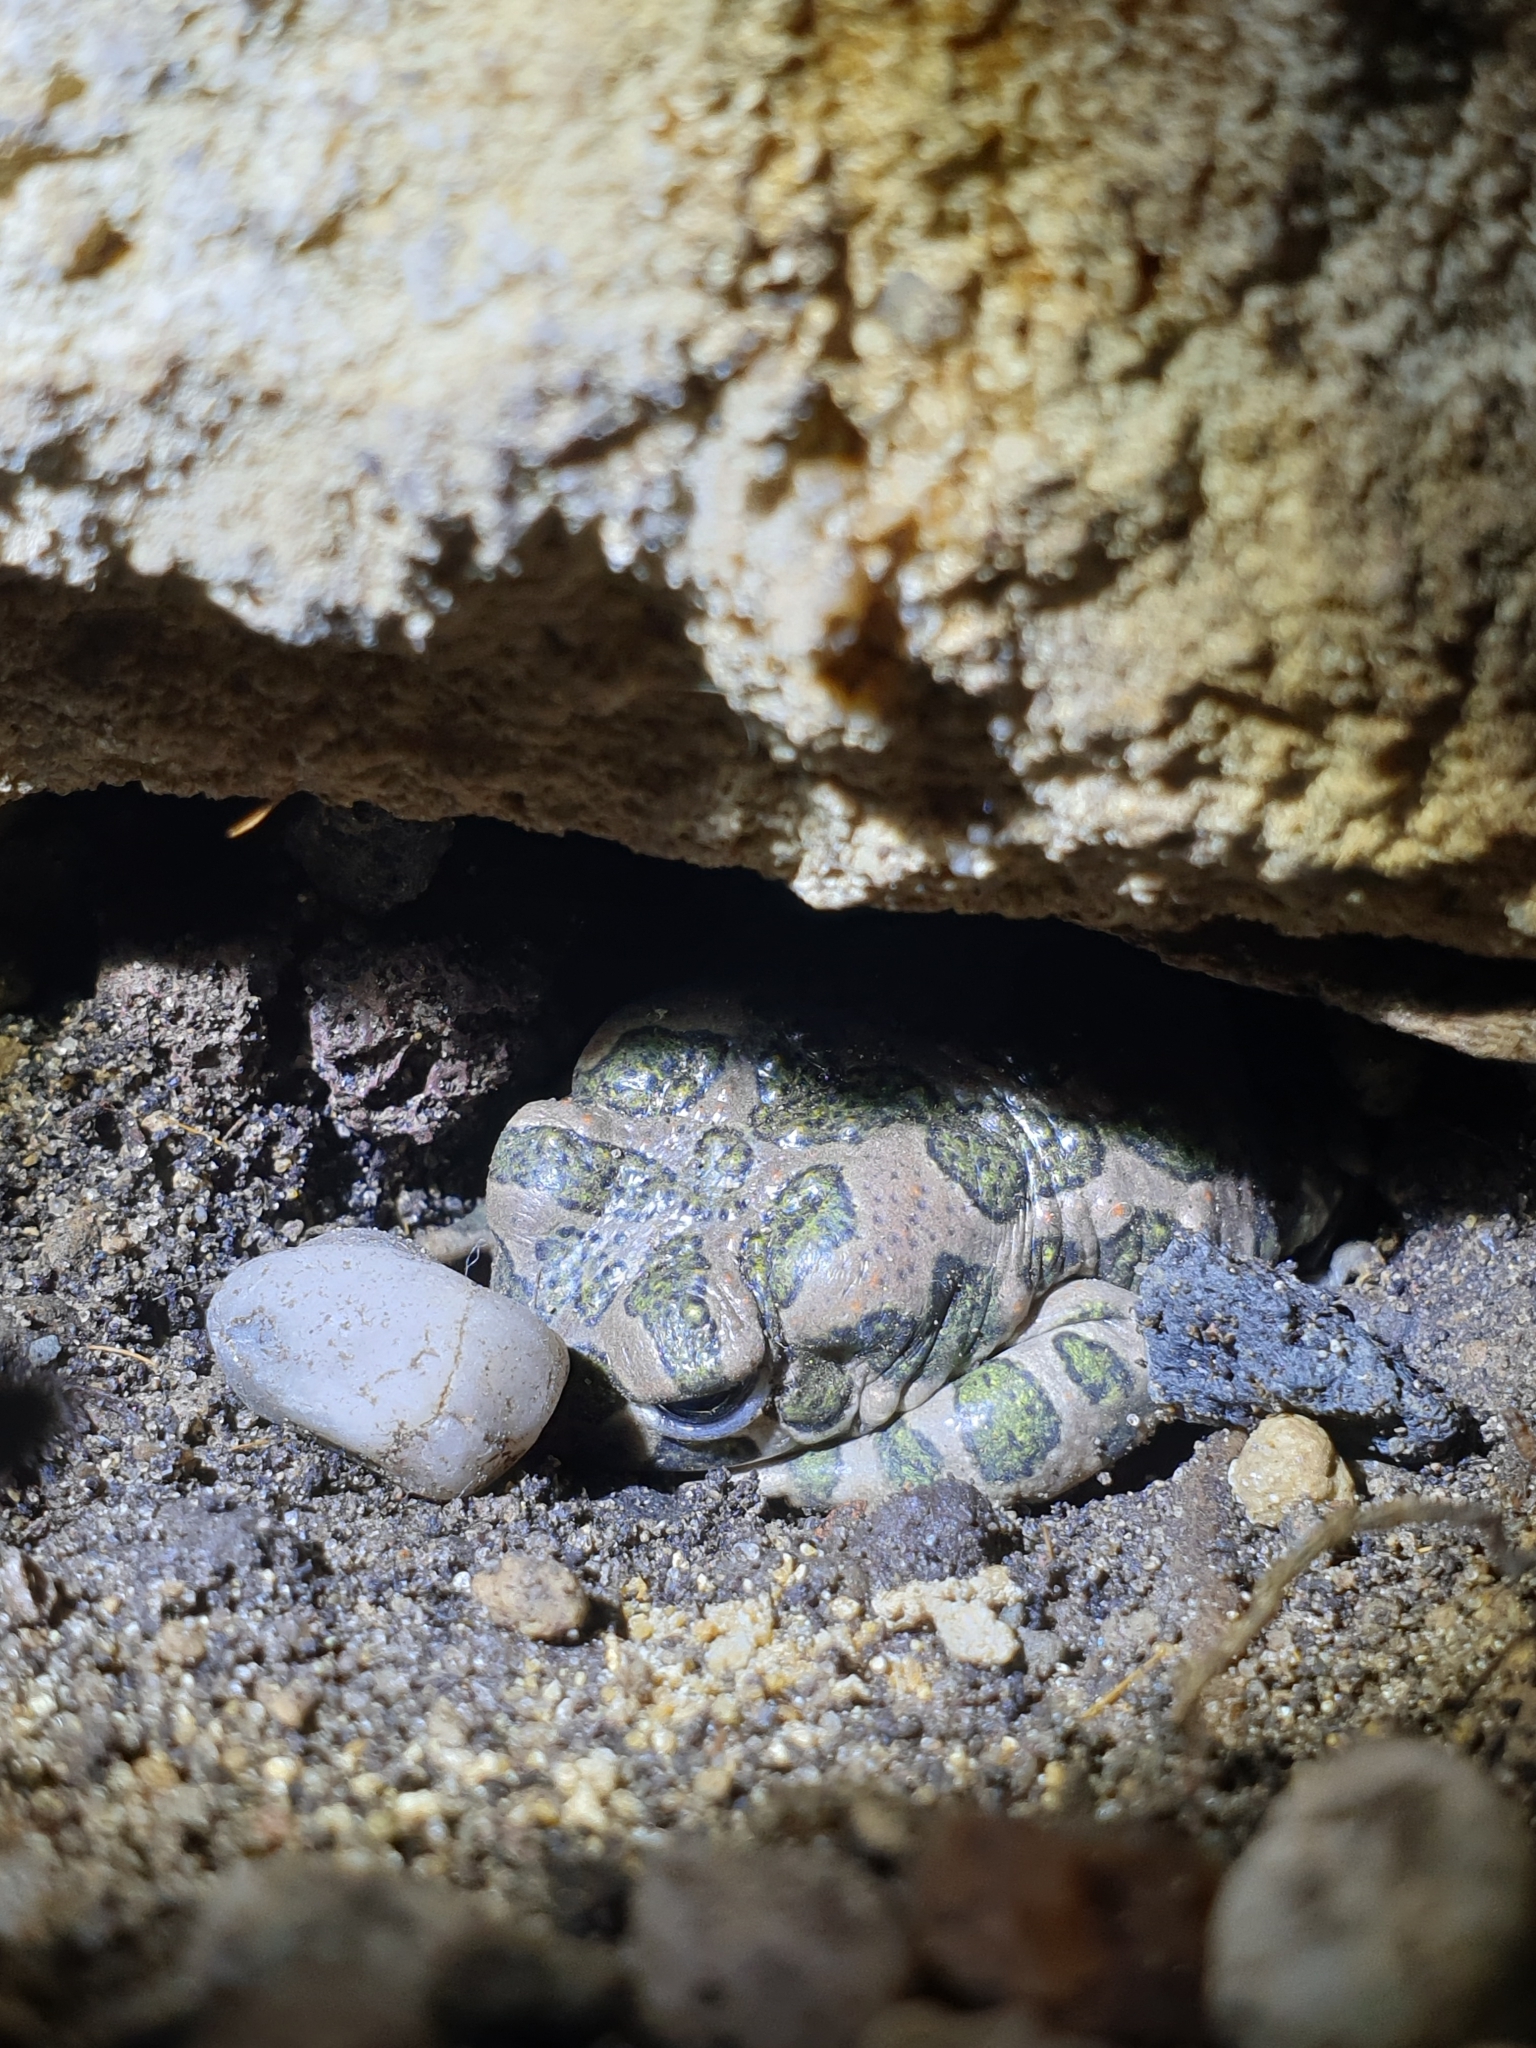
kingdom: Animalia
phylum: Chordata
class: Amphibia
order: Anura
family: Bufonidae
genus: Bufotes
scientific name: Bufotes viridis
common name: European green toad
